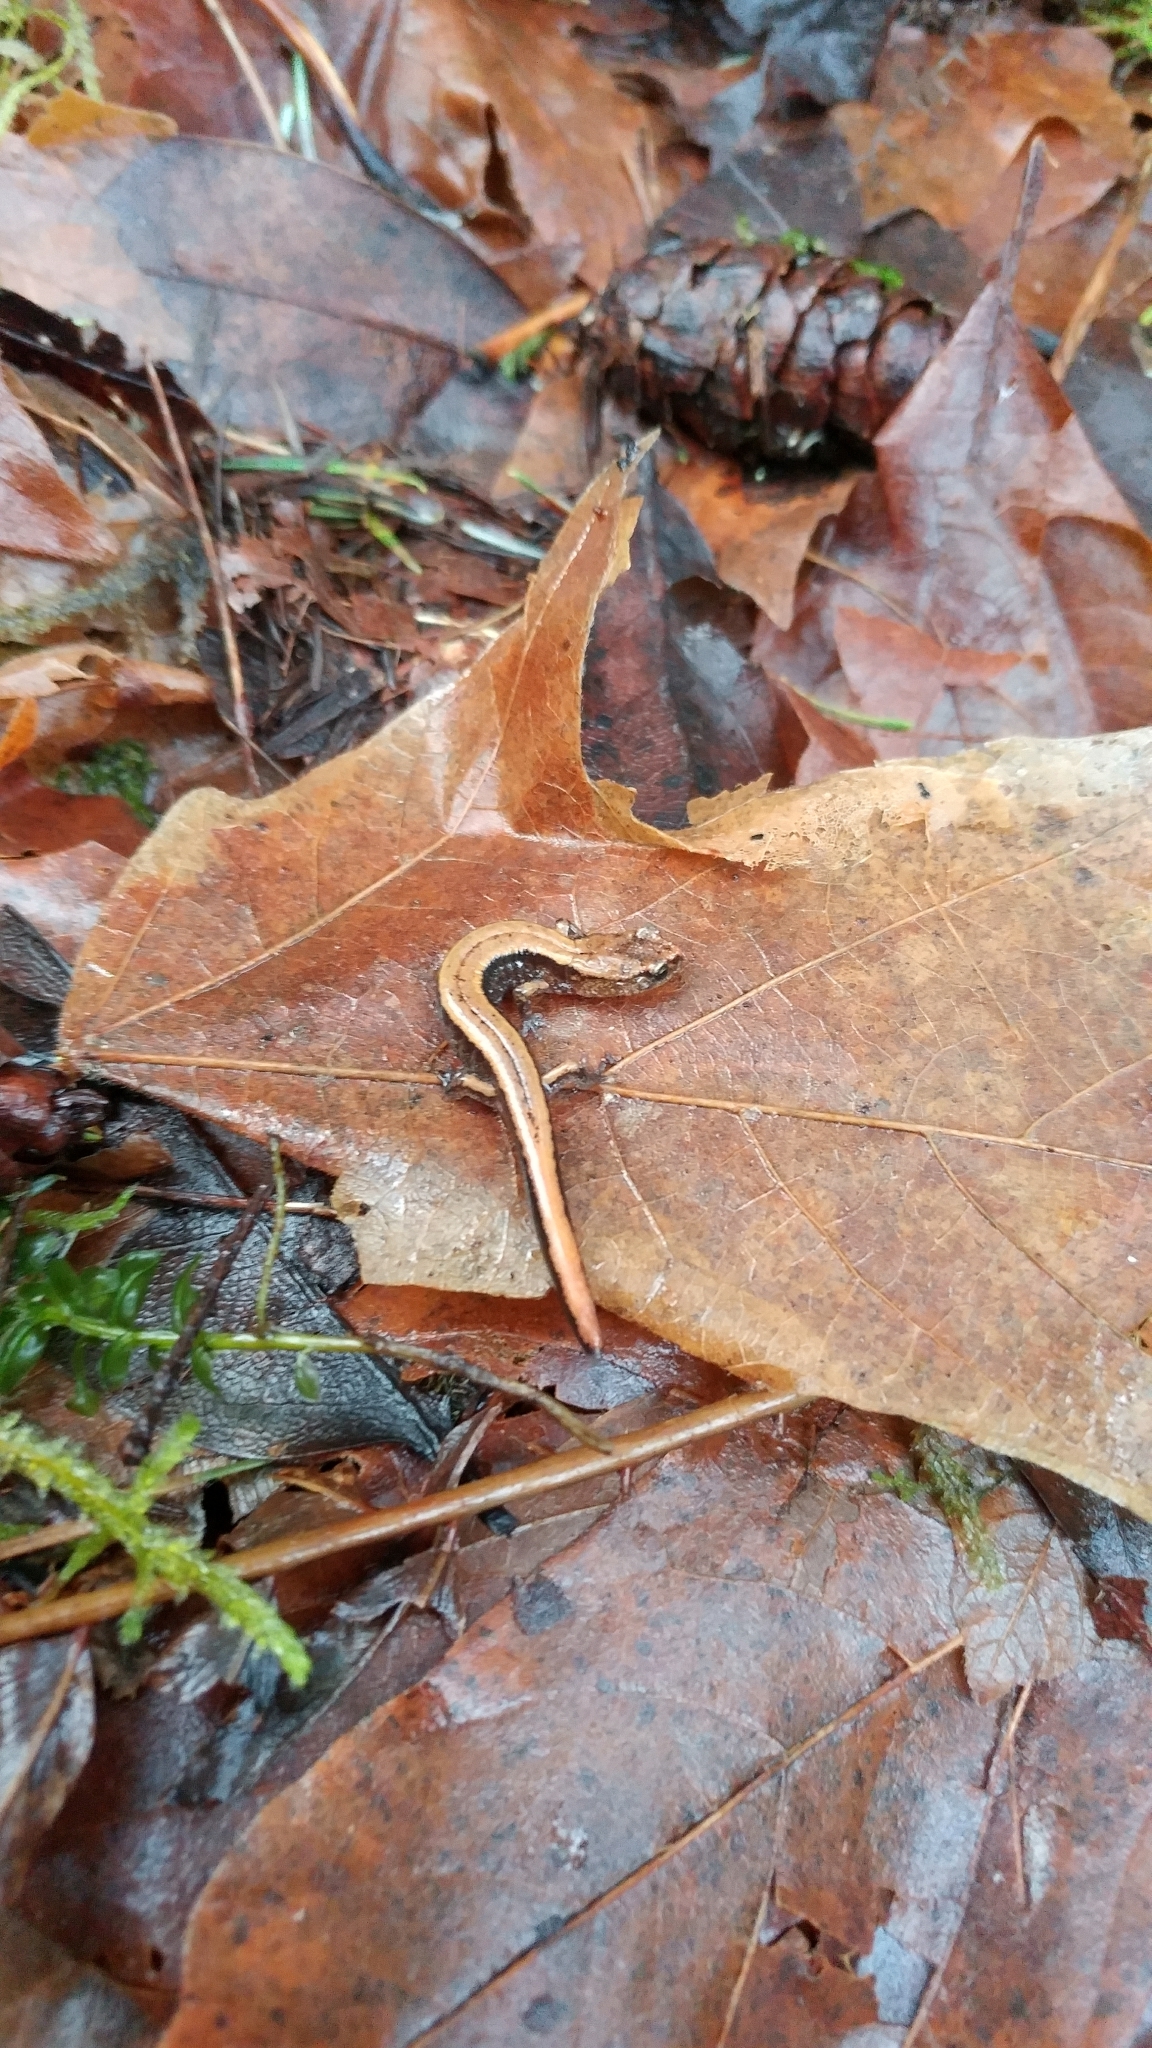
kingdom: Animalia
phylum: Chordata
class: Amphibia
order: Caudata
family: Plethodontidae
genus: Plethodon
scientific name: Plethodon vehiculum
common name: Western red-backed salamander
